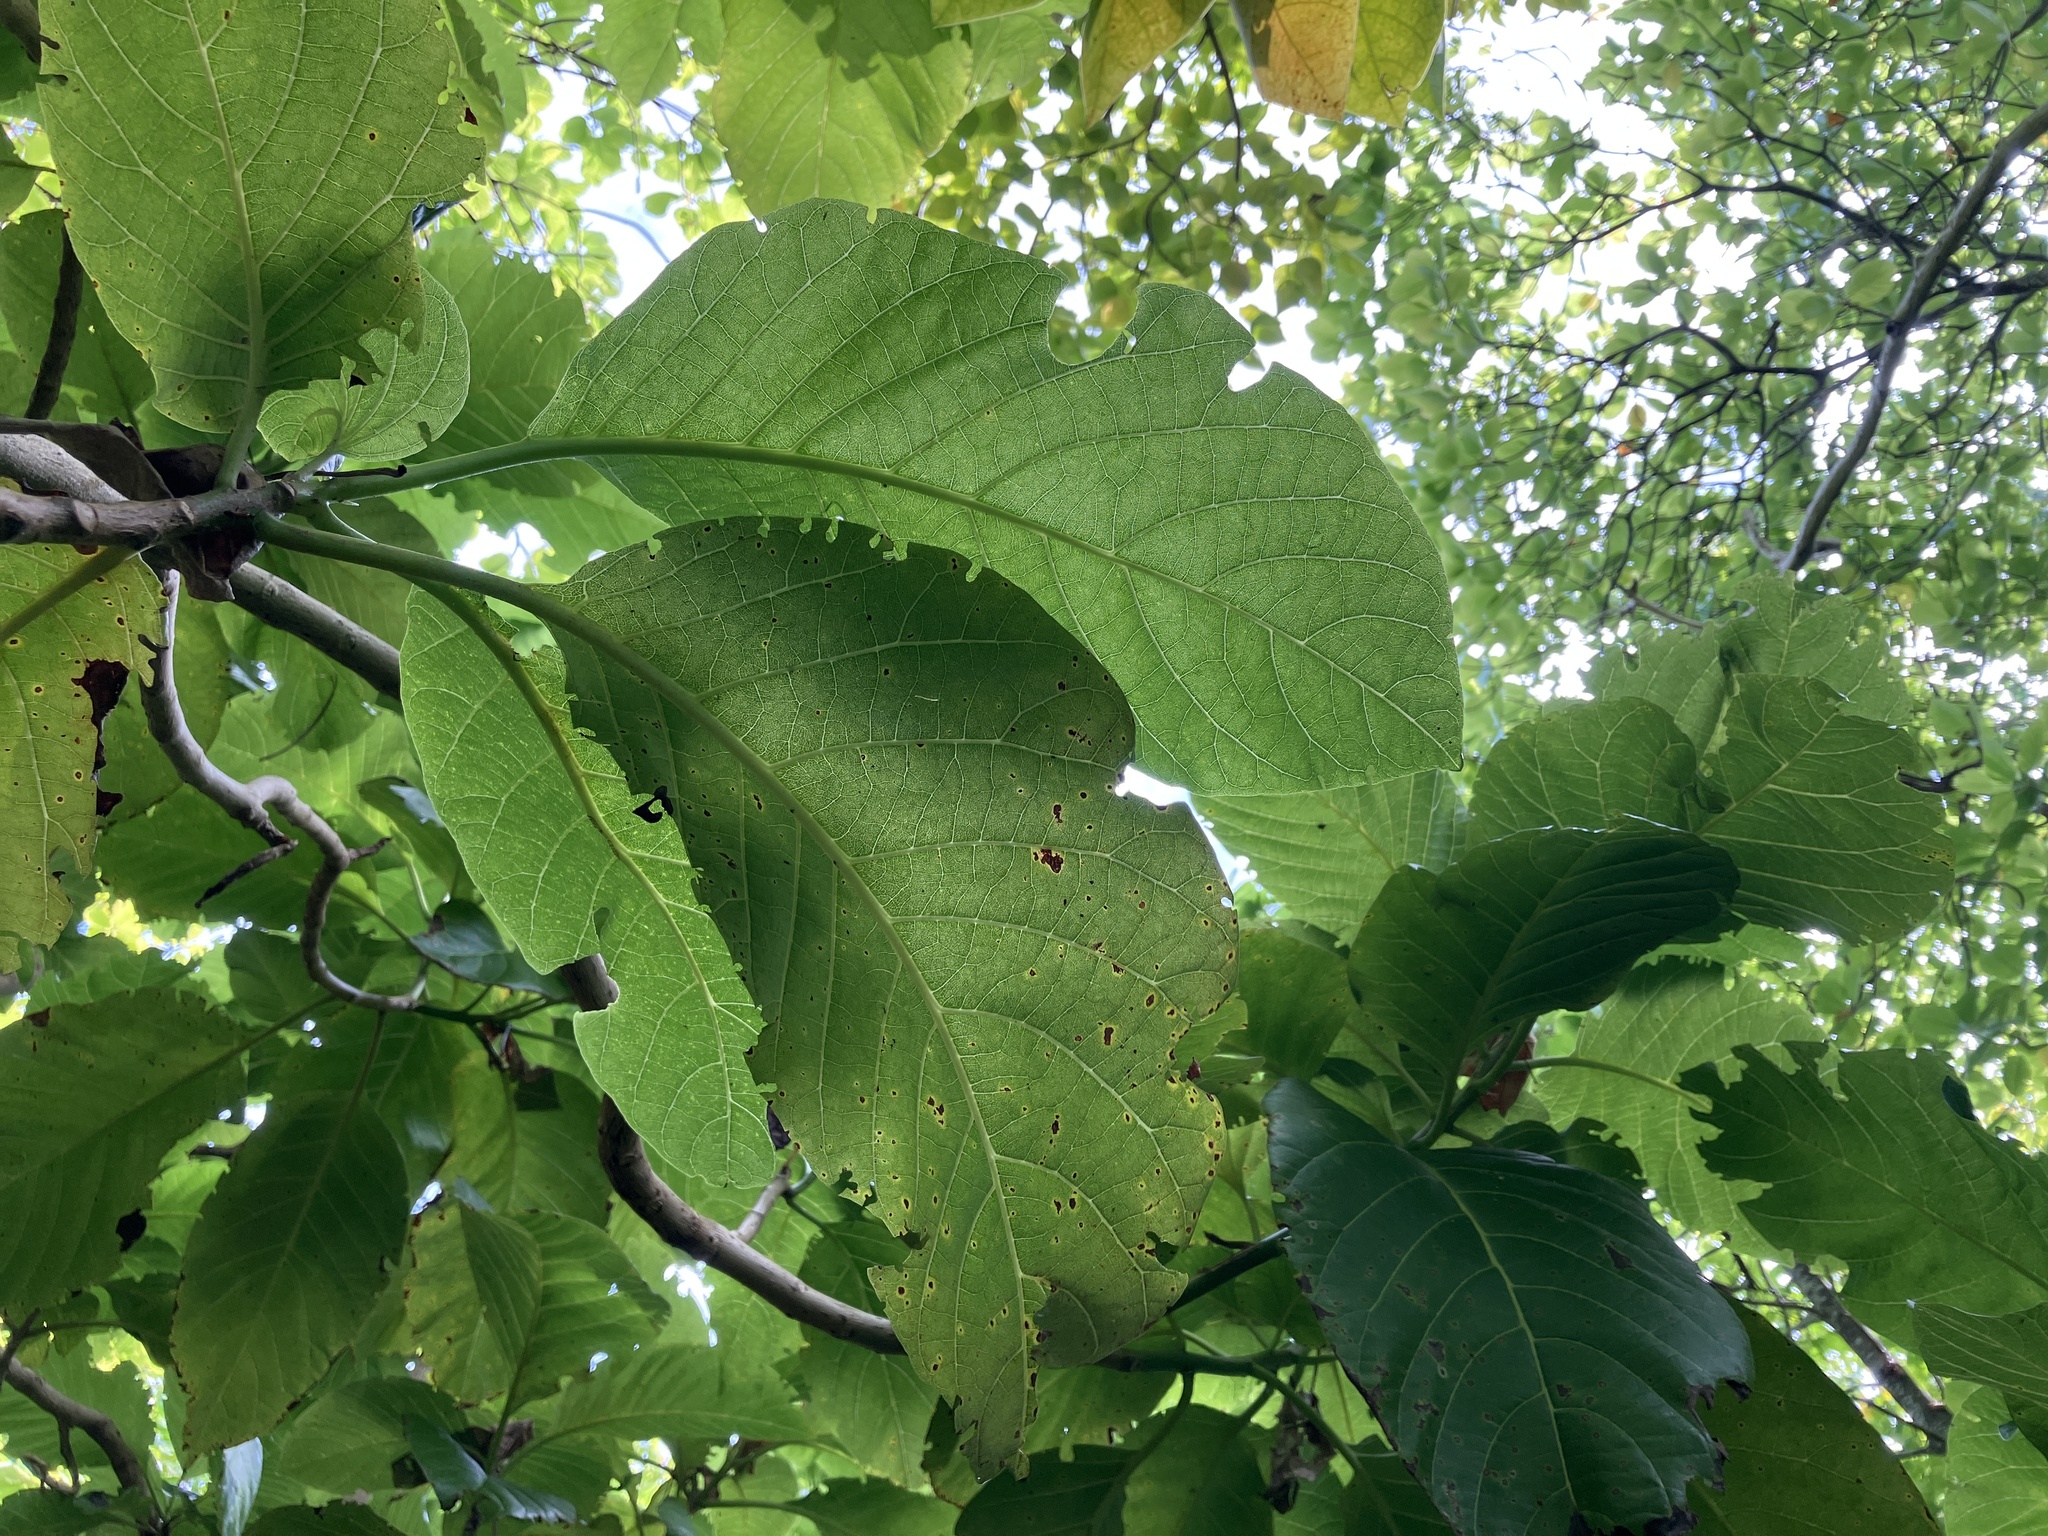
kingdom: Plantae
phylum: Tracheophyta
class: Magnoliopsida
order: Caryophyllales
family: Nyctaginaceae
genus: Ceodes
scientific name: Ceodes
